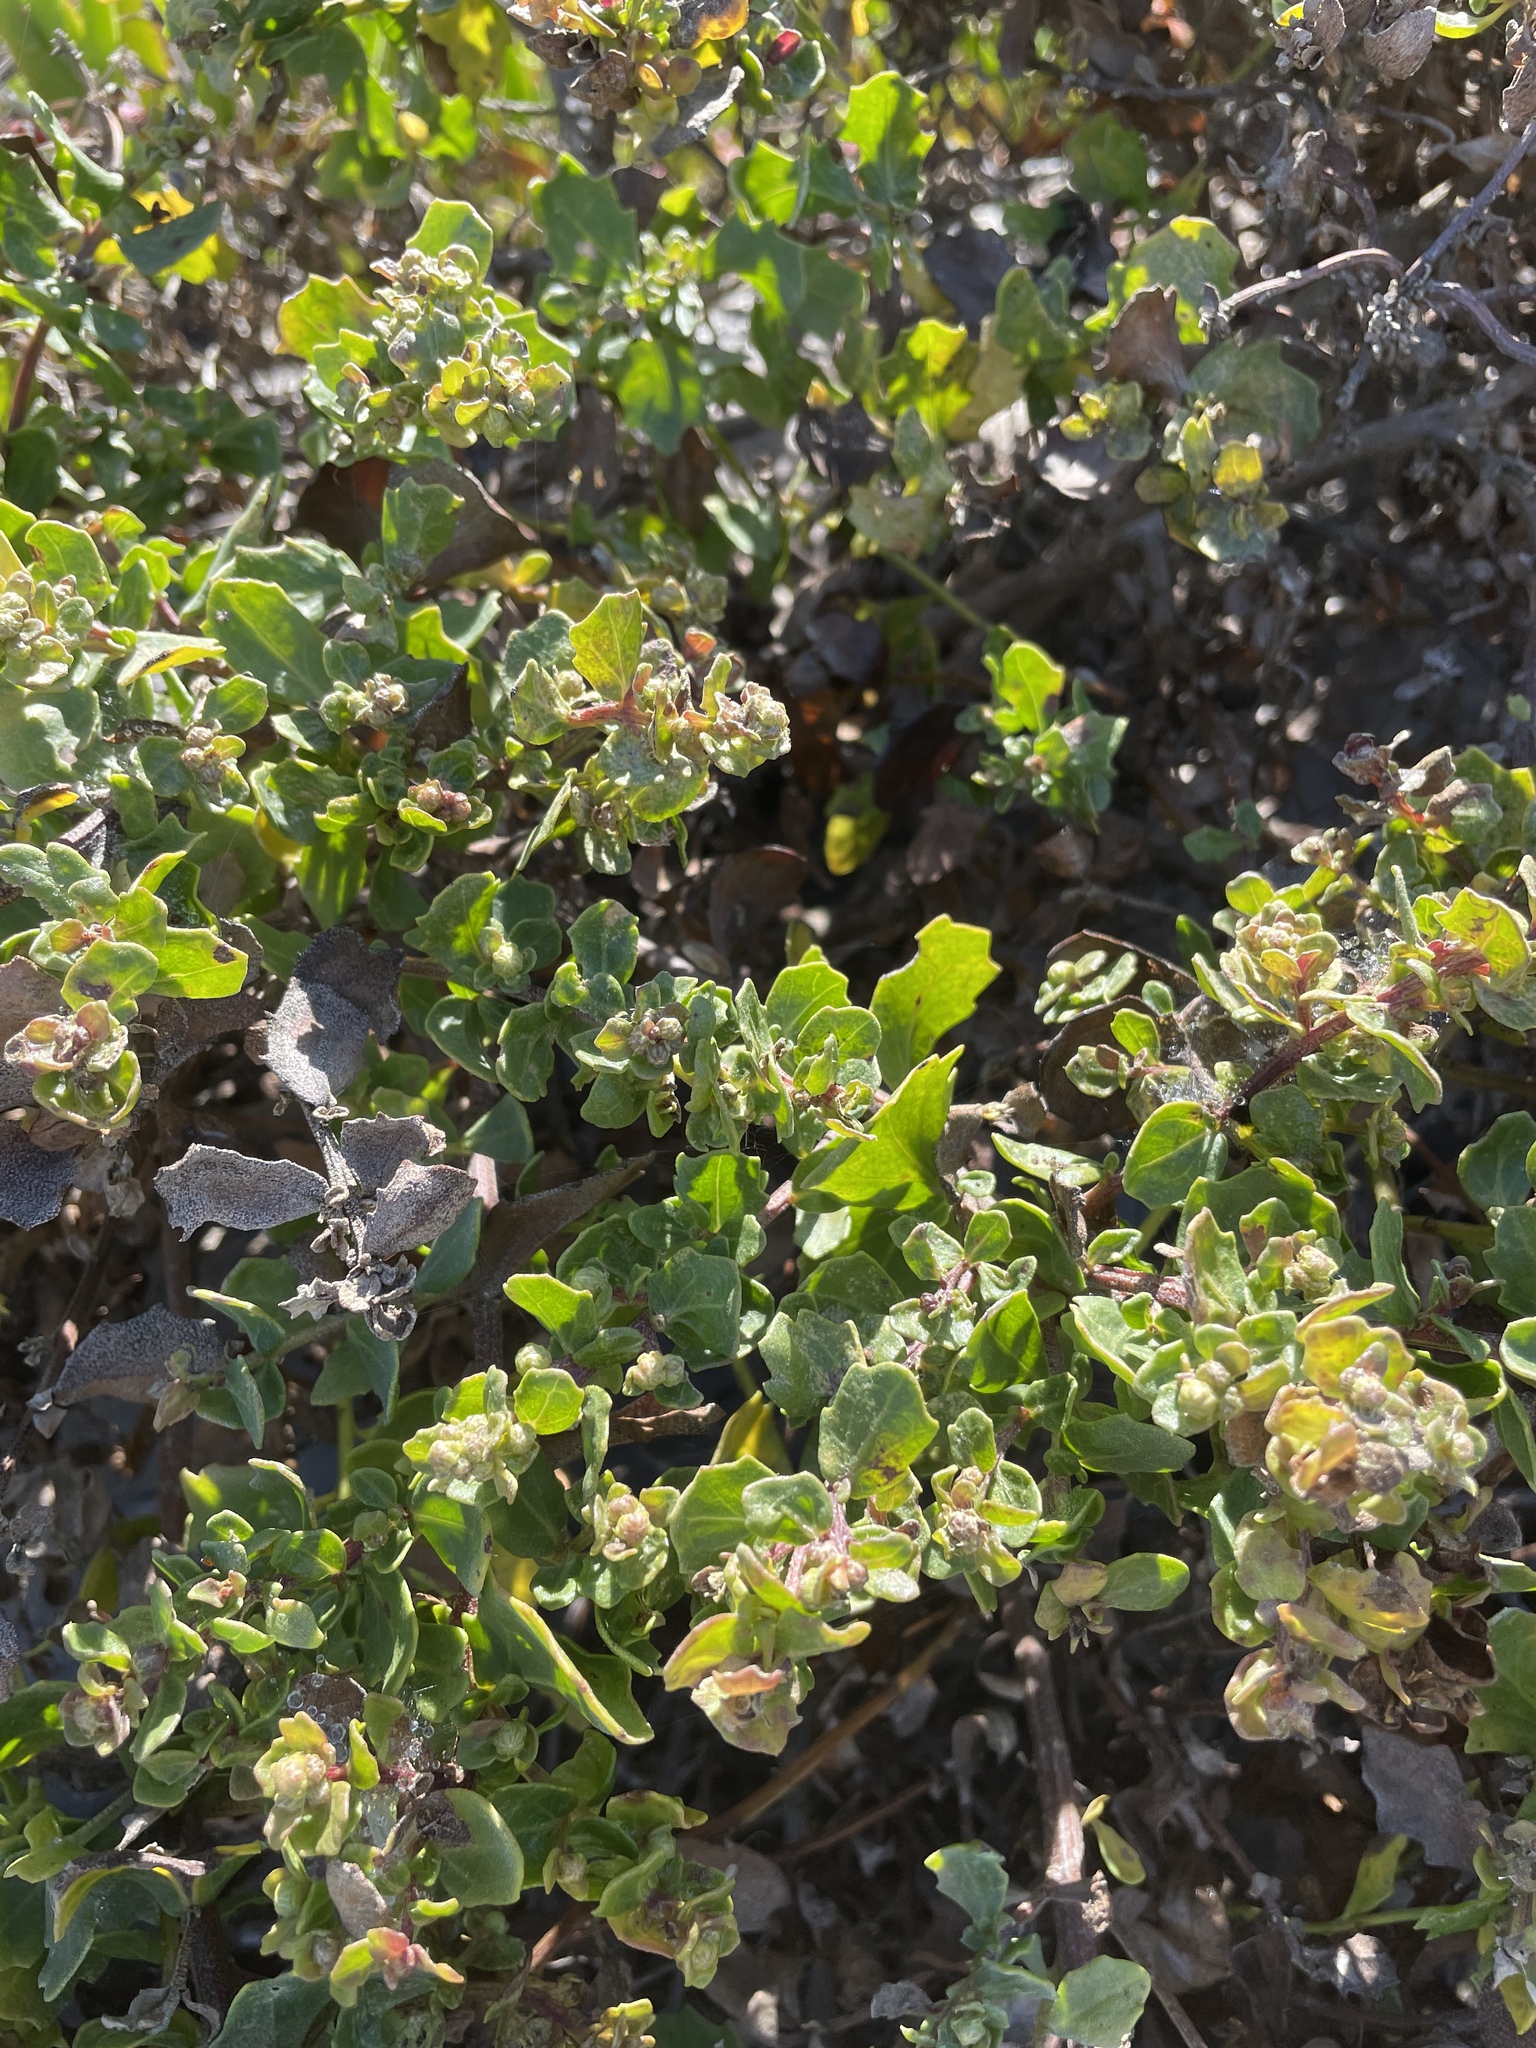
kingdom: Plantae
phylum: Tracheophyta
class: Magnoliopsida
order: Asterales
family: Asteraceae
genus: Baccharis
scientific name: Baccharis pilularis
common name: Coyotebrush
